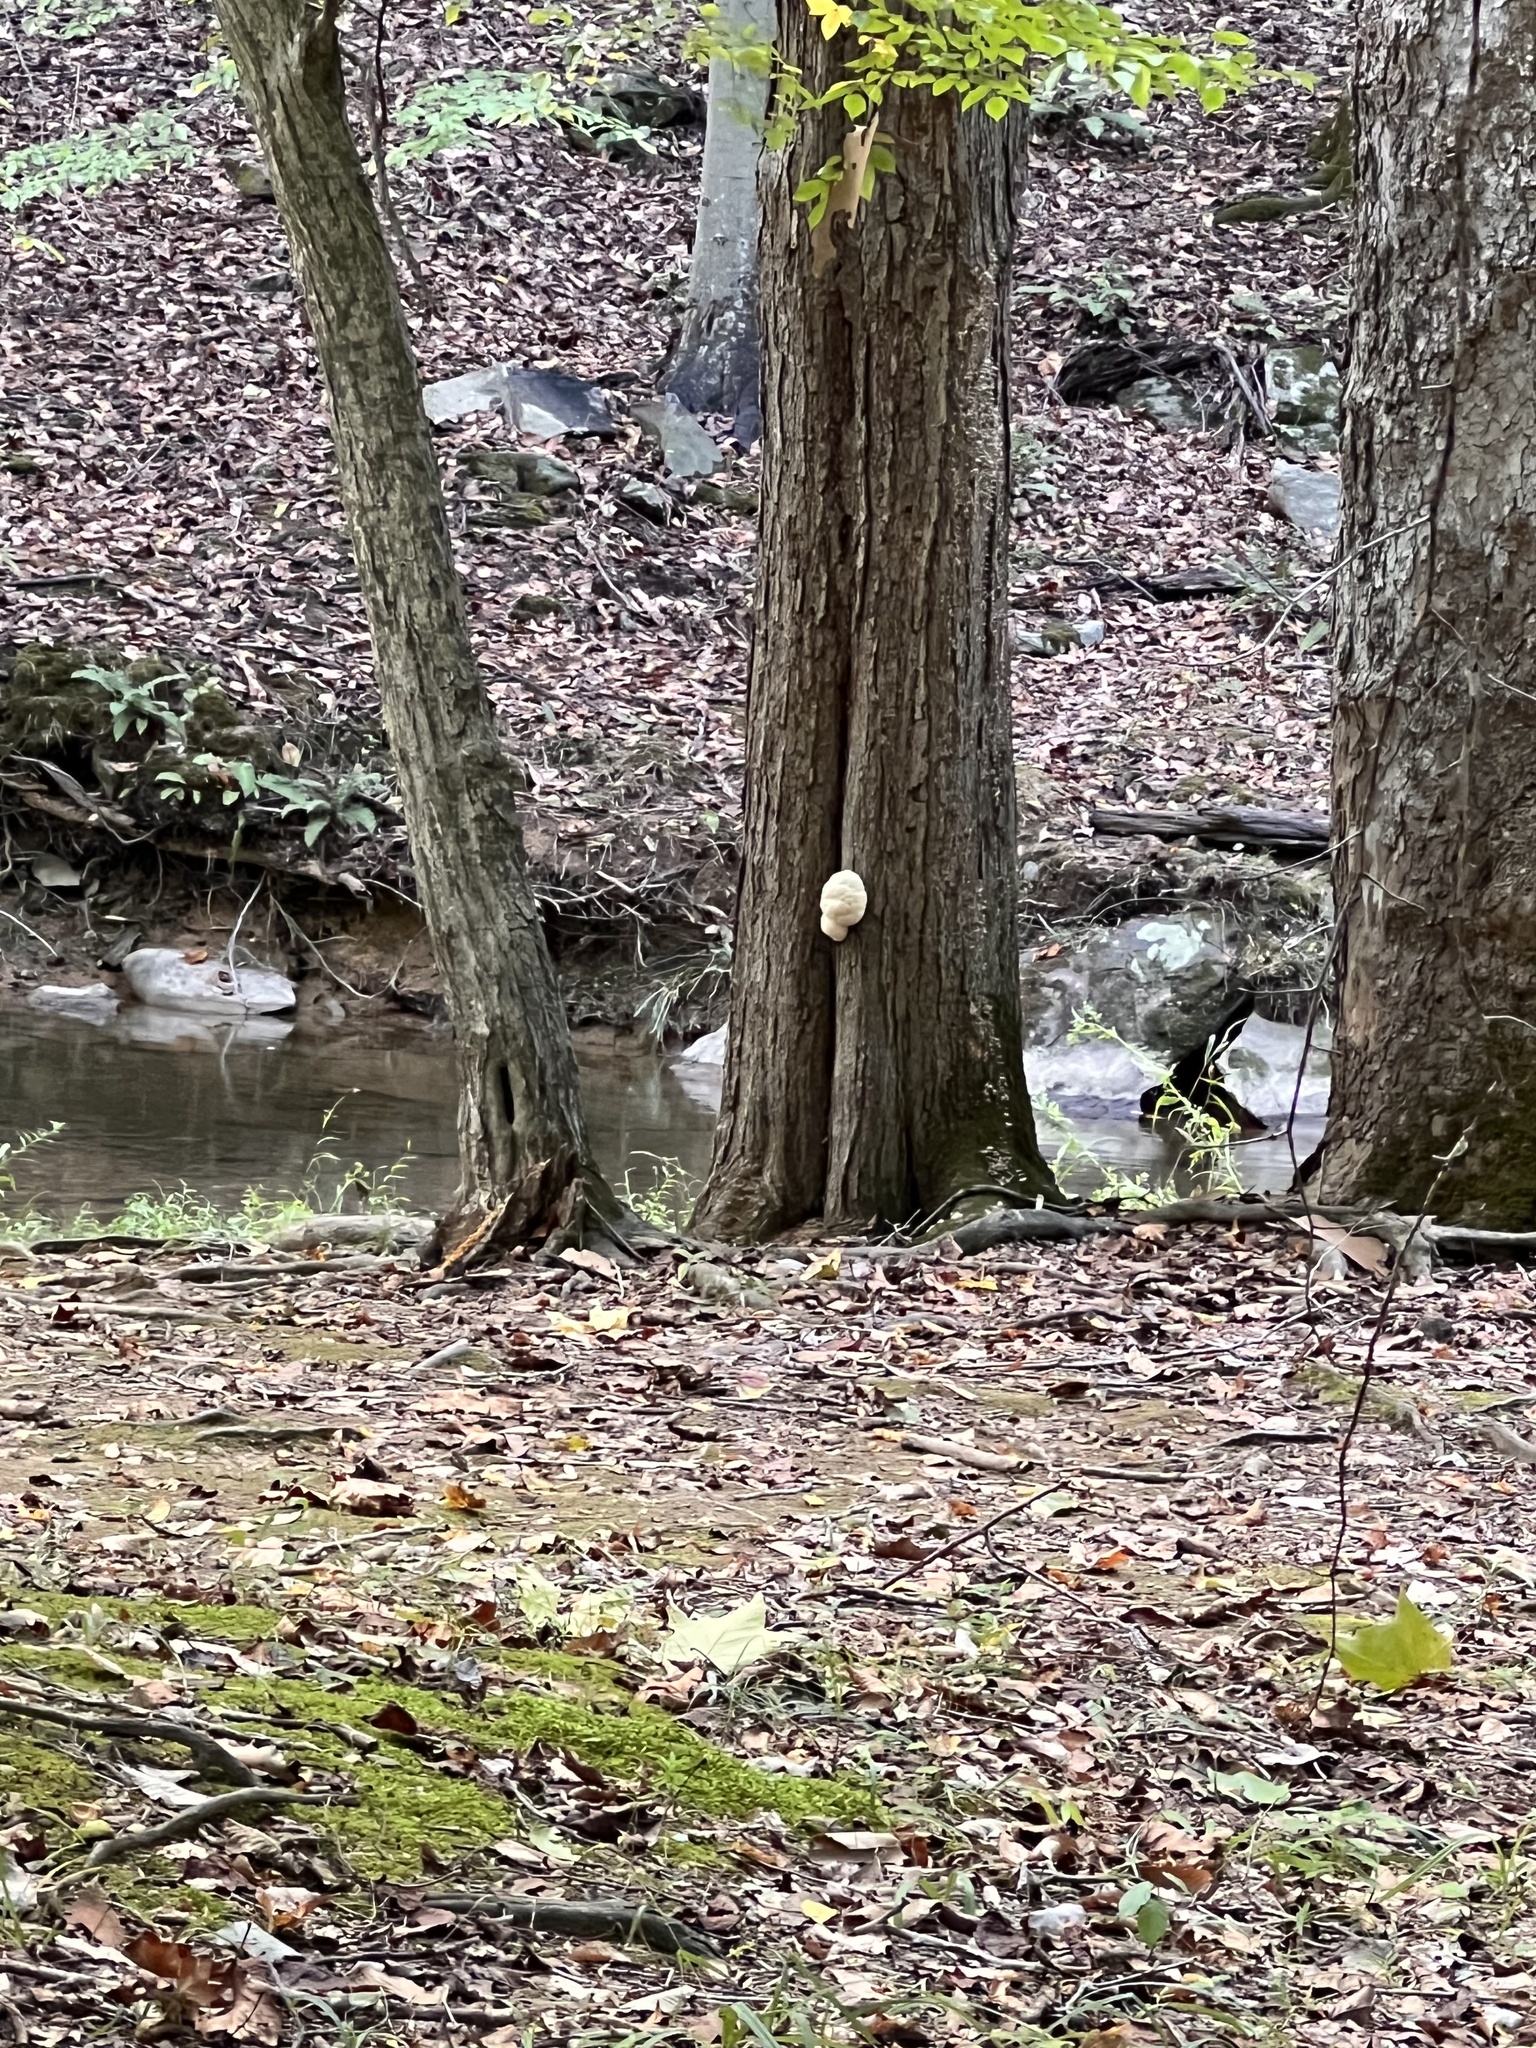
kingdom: Fungi
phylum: Basidiomycota
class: Agaricomycetes
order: Russulales
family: Hericiaceae
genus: Hericium
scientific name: Hericium erinaceus
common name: Bearded tooth
